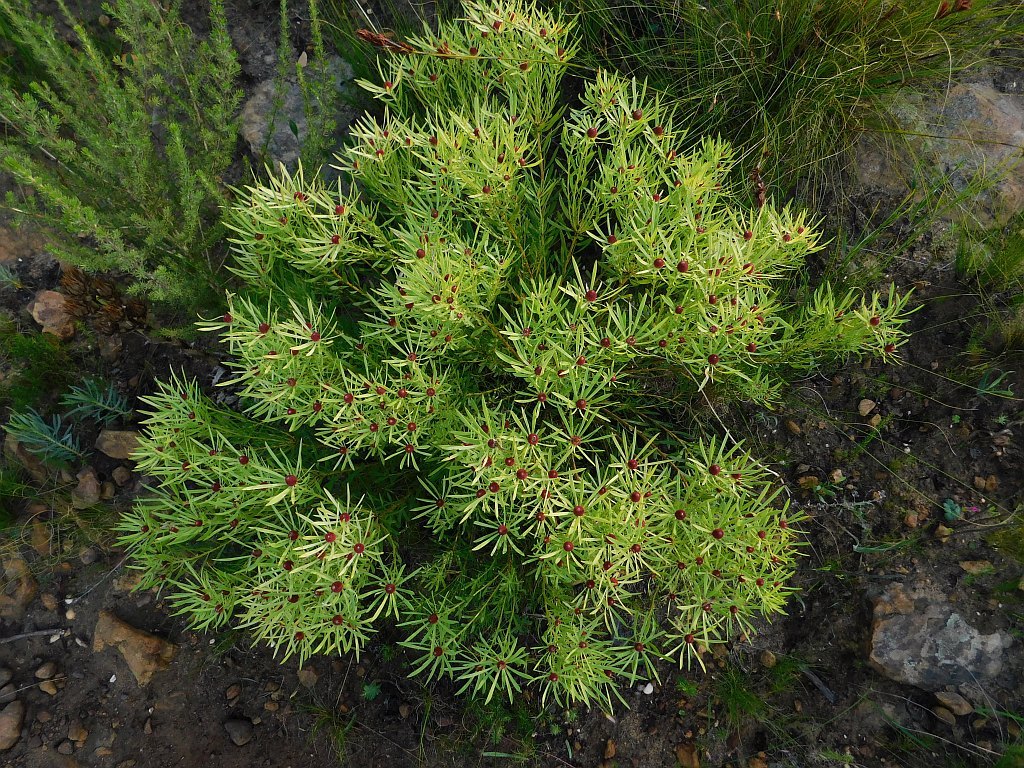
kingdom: Plantae
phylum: Tracheophyta
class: Magnoliopsida
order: Proteales
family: Proteaceae
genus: Leucadendron
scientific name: Leucadendron salignum
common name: Common sunshine conebush
